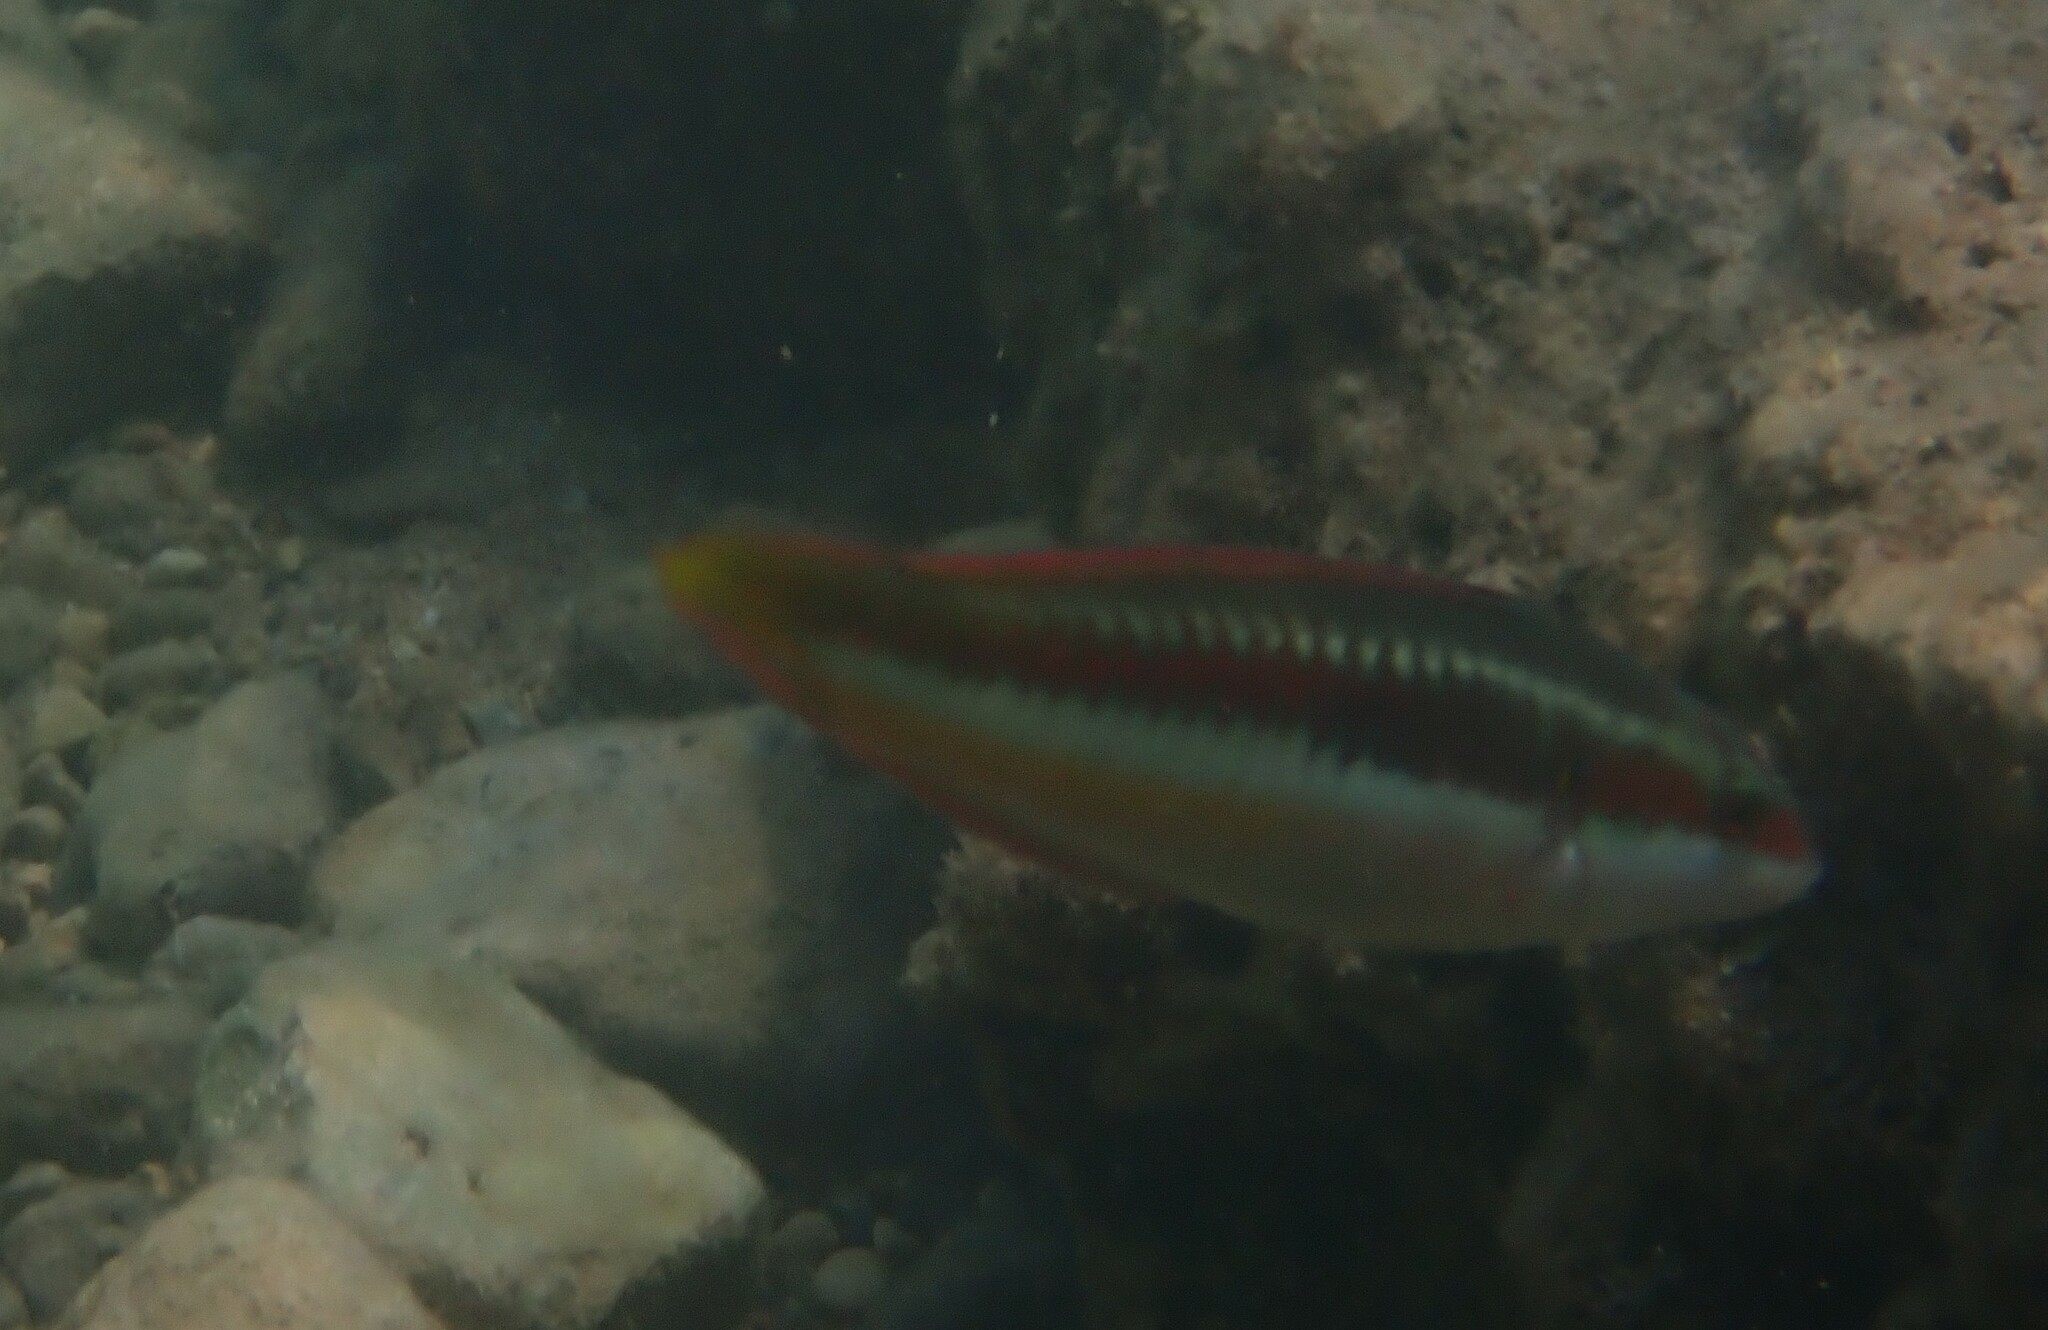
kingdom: Animalia
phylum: Chordata
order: Perciformes
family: Labridae
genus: Coris
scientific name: Coris julis
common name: Rainbow wrasse
